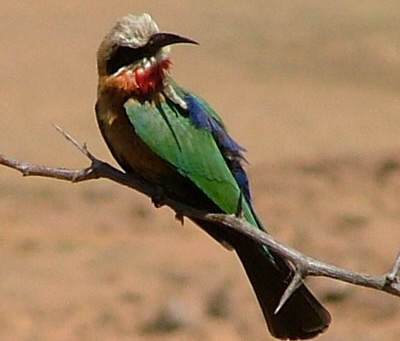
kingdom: Animalia
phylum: Chordata
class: Aves
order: Coraciiformes
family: Meropidae
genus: Merops
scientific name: Merops bullockoides
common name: White-fronted bee-eater
